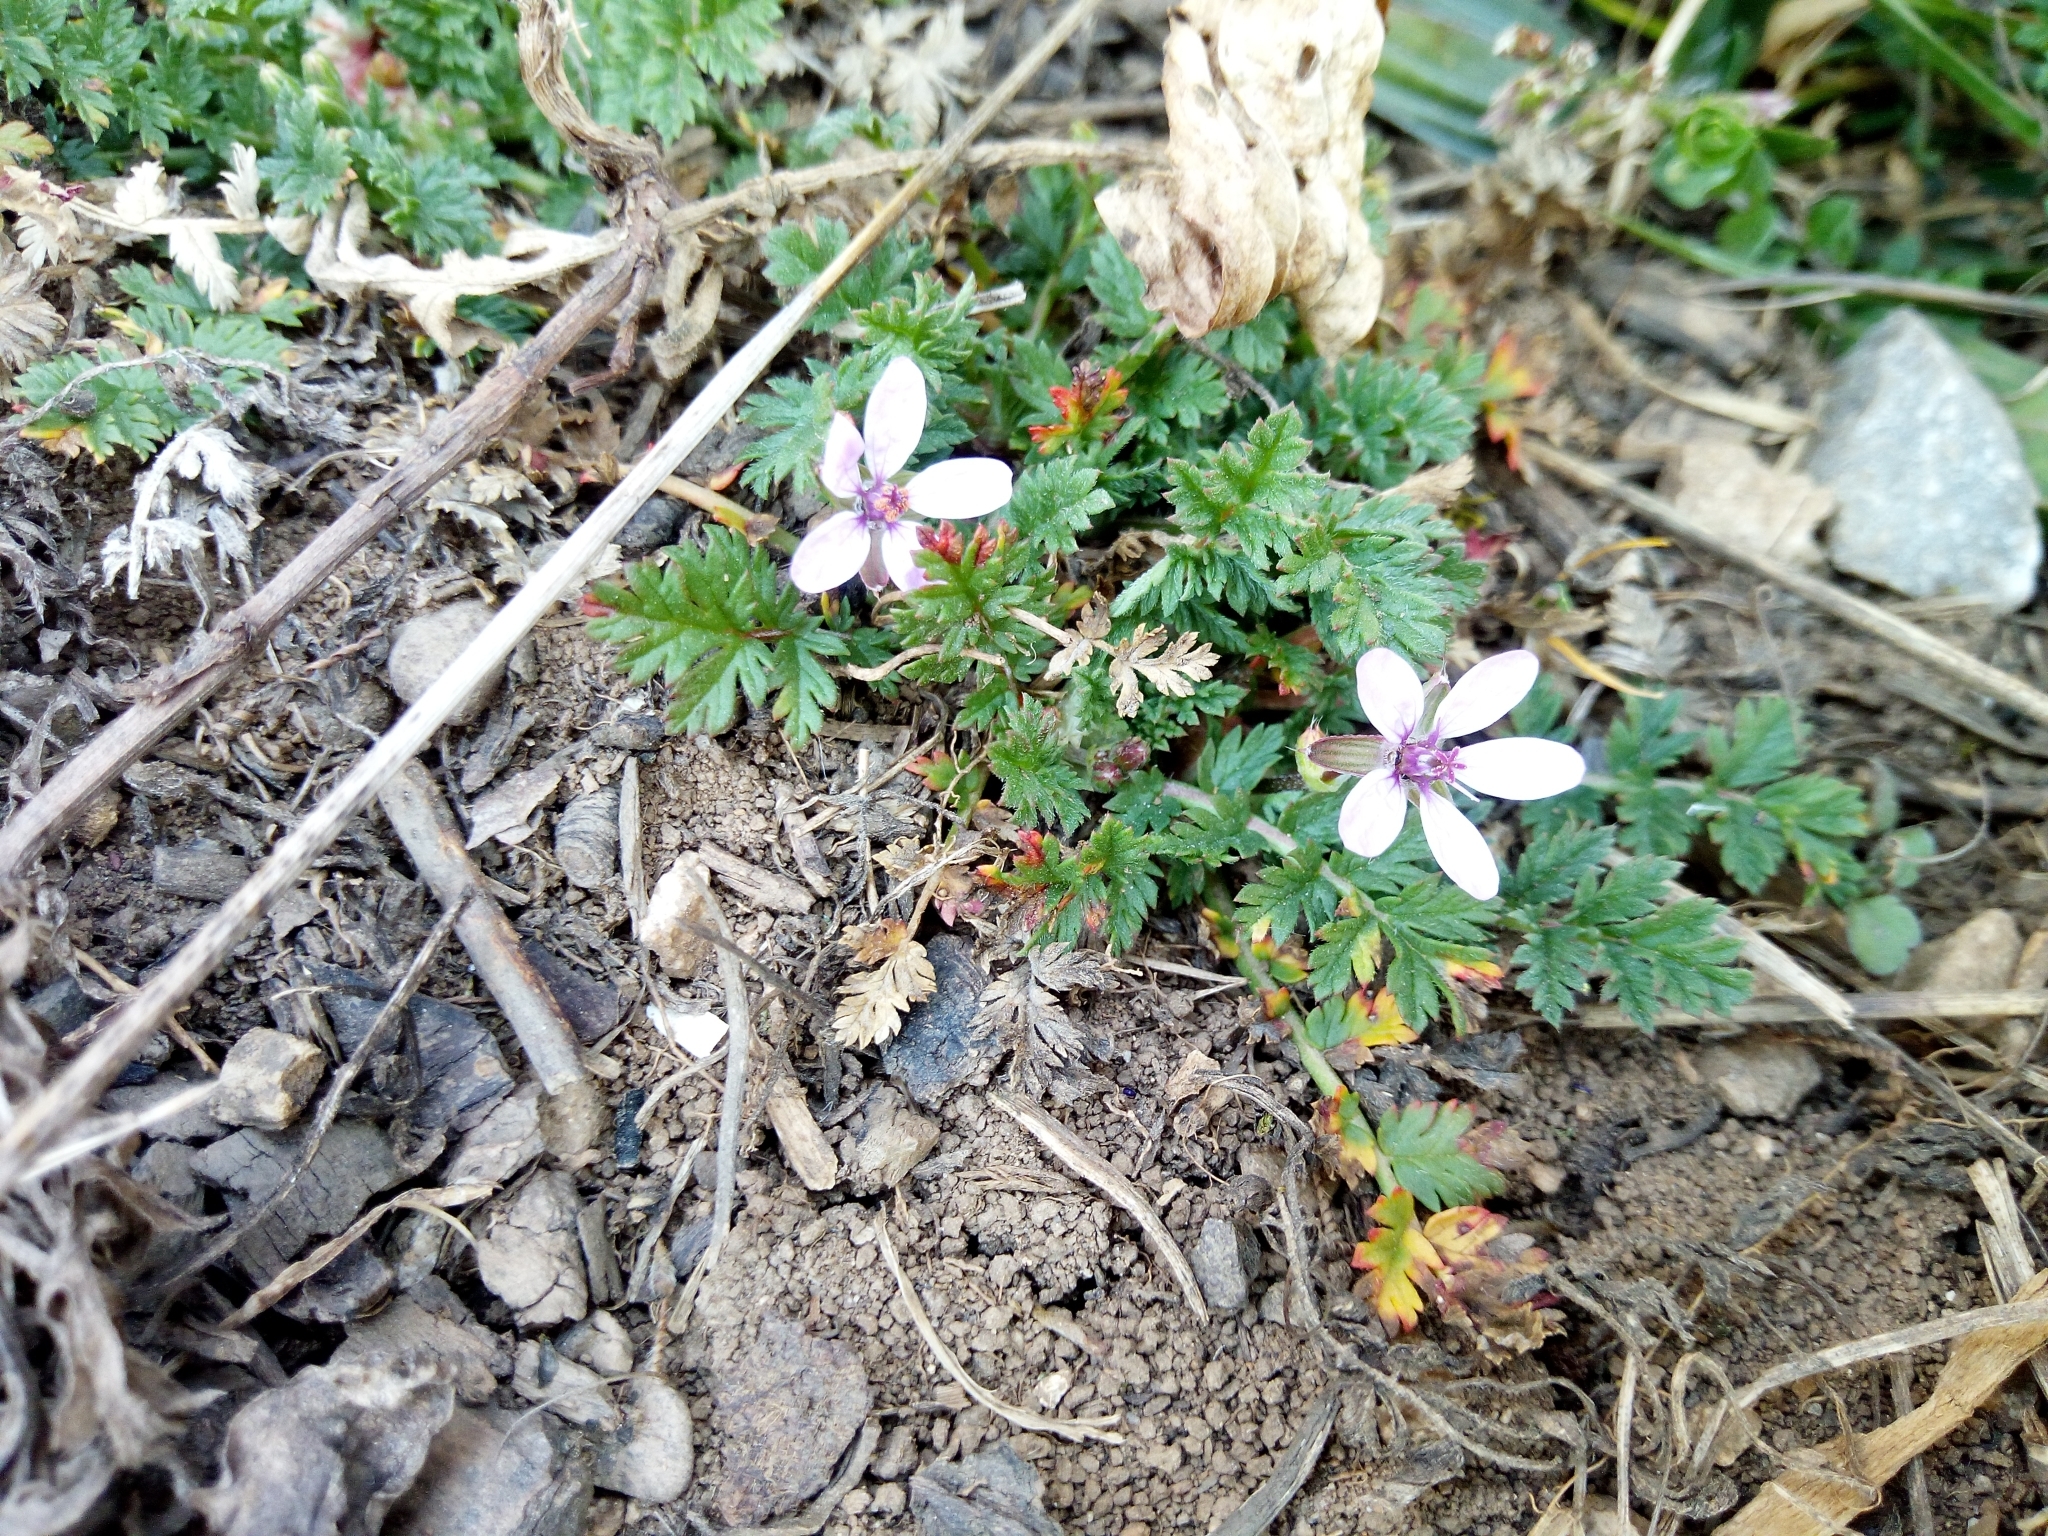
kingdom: Plantae
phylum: Tracheophyta
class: Magnoliopsida
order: Geraniales
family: Geraniaceae
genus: Erodium
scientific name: Erodium cicutarium
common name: Common stork's-bill
